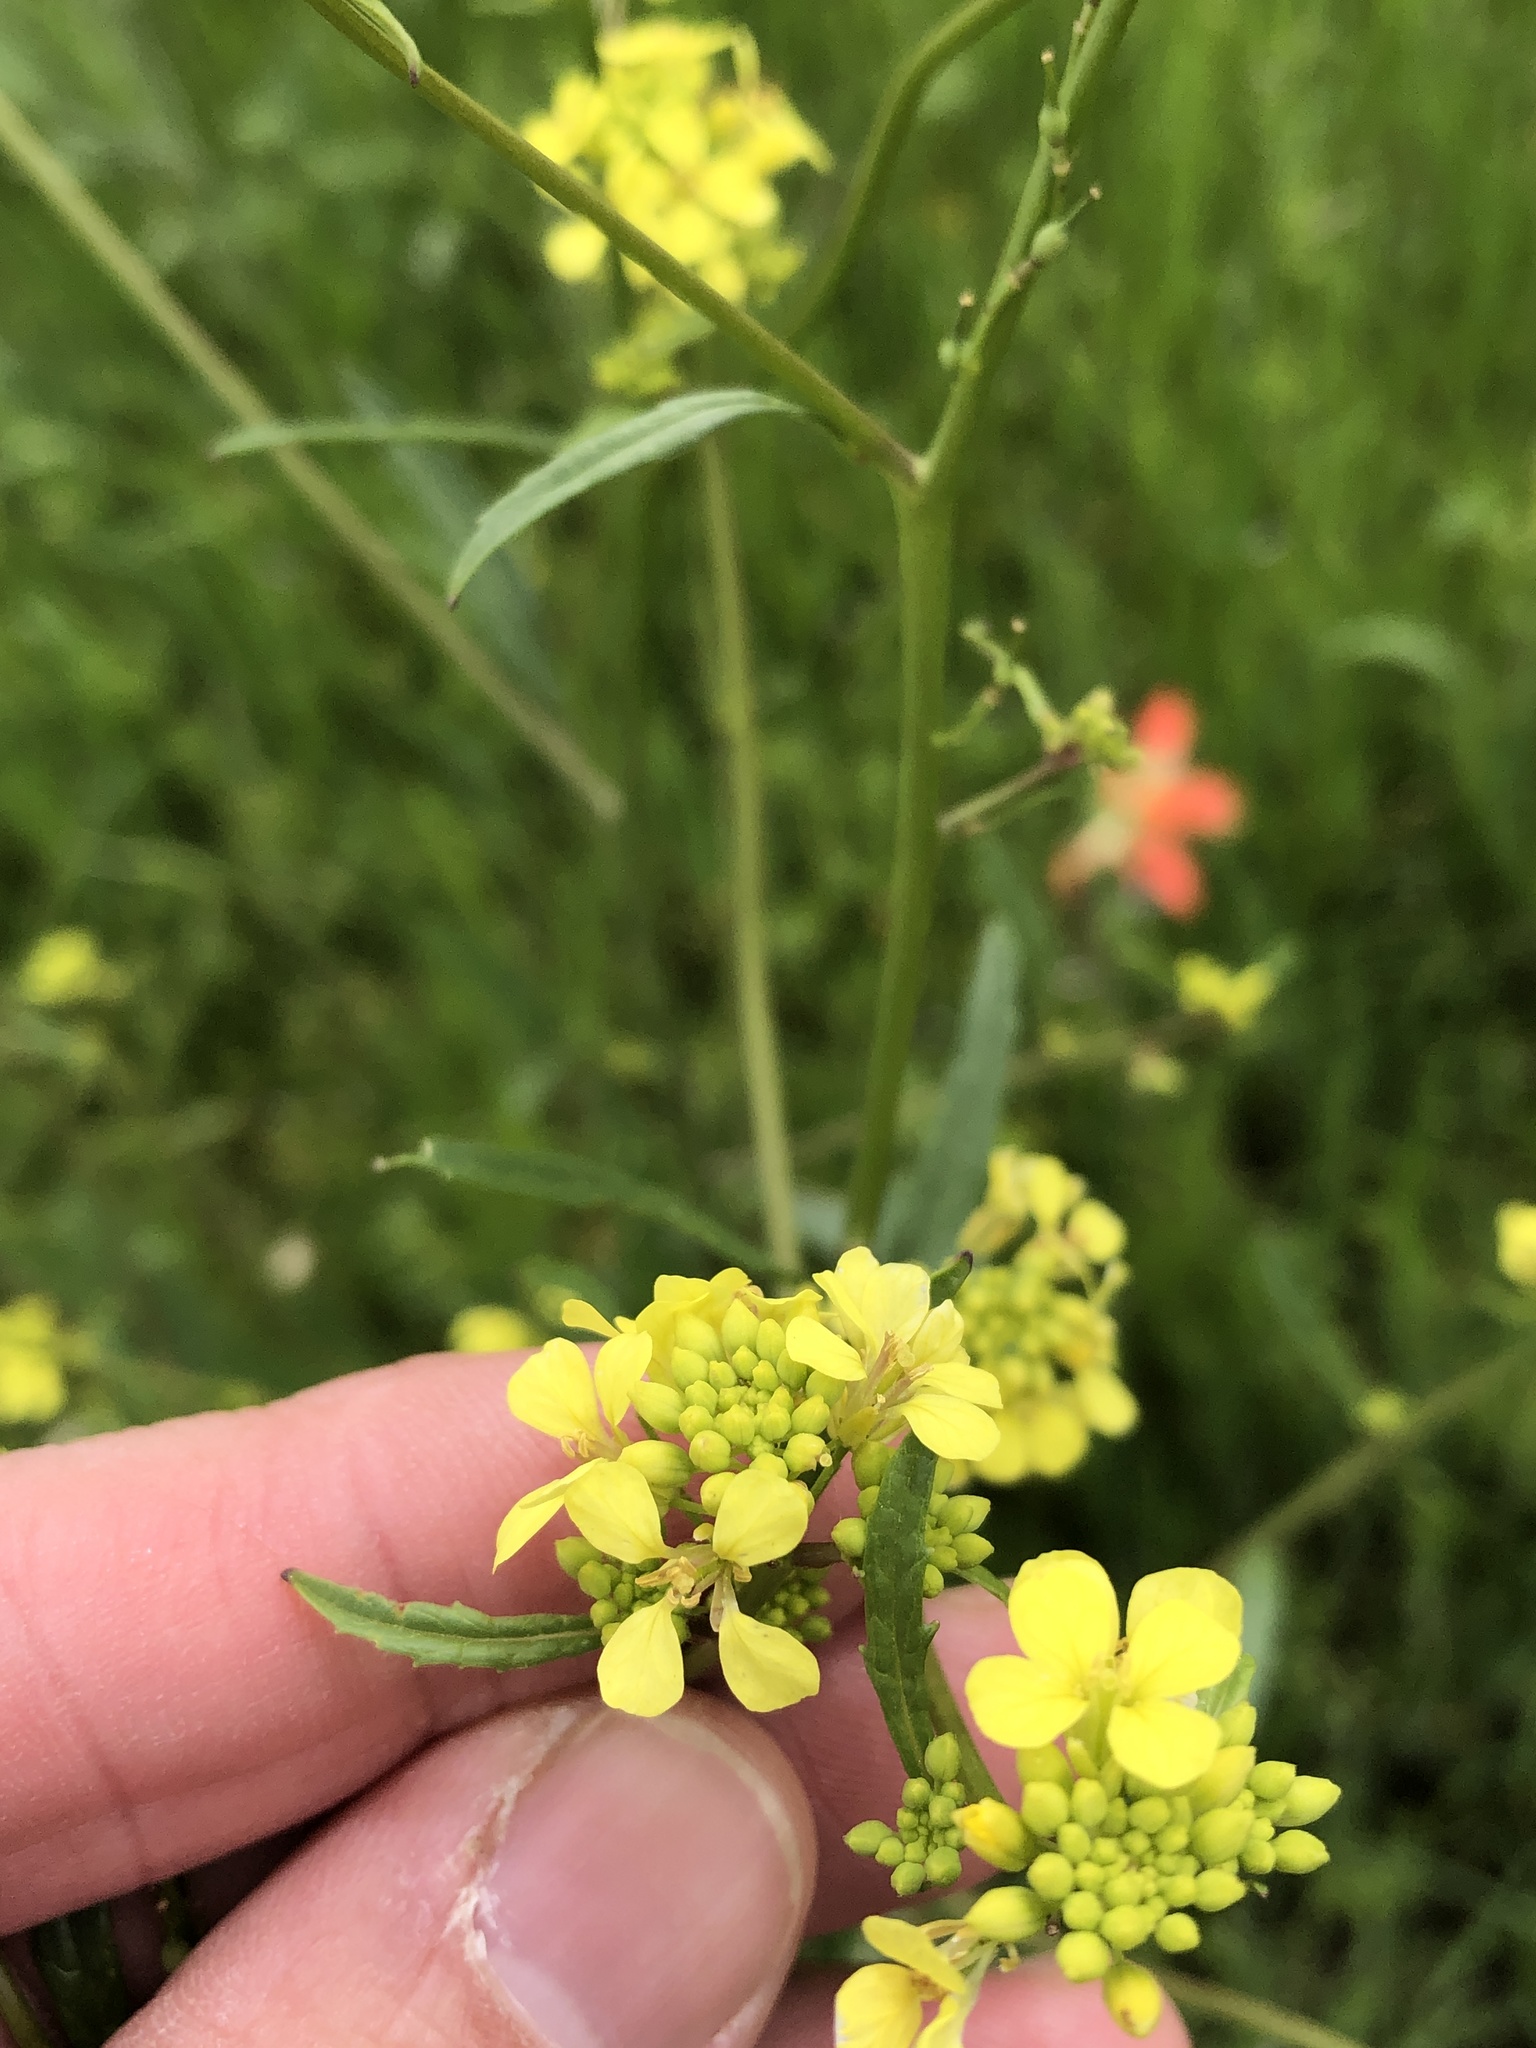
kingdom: Plantae
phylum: Tracheophyta
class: Magnoliopsida
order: Brassicales
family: Brassicaceae
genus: Rapistrum
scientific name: Rapistrum rugosum
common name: Annual bastardcabbage
